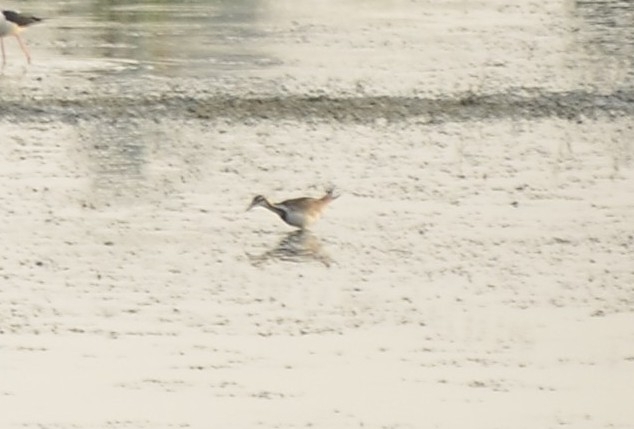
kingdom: Animalia
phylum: Chordata
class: Aves
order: Charadriiformes
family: Jacanidae
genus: Hydrophasianus
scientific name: Hydrophasianus chirurgus
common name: Pheasant-tailed jacana
